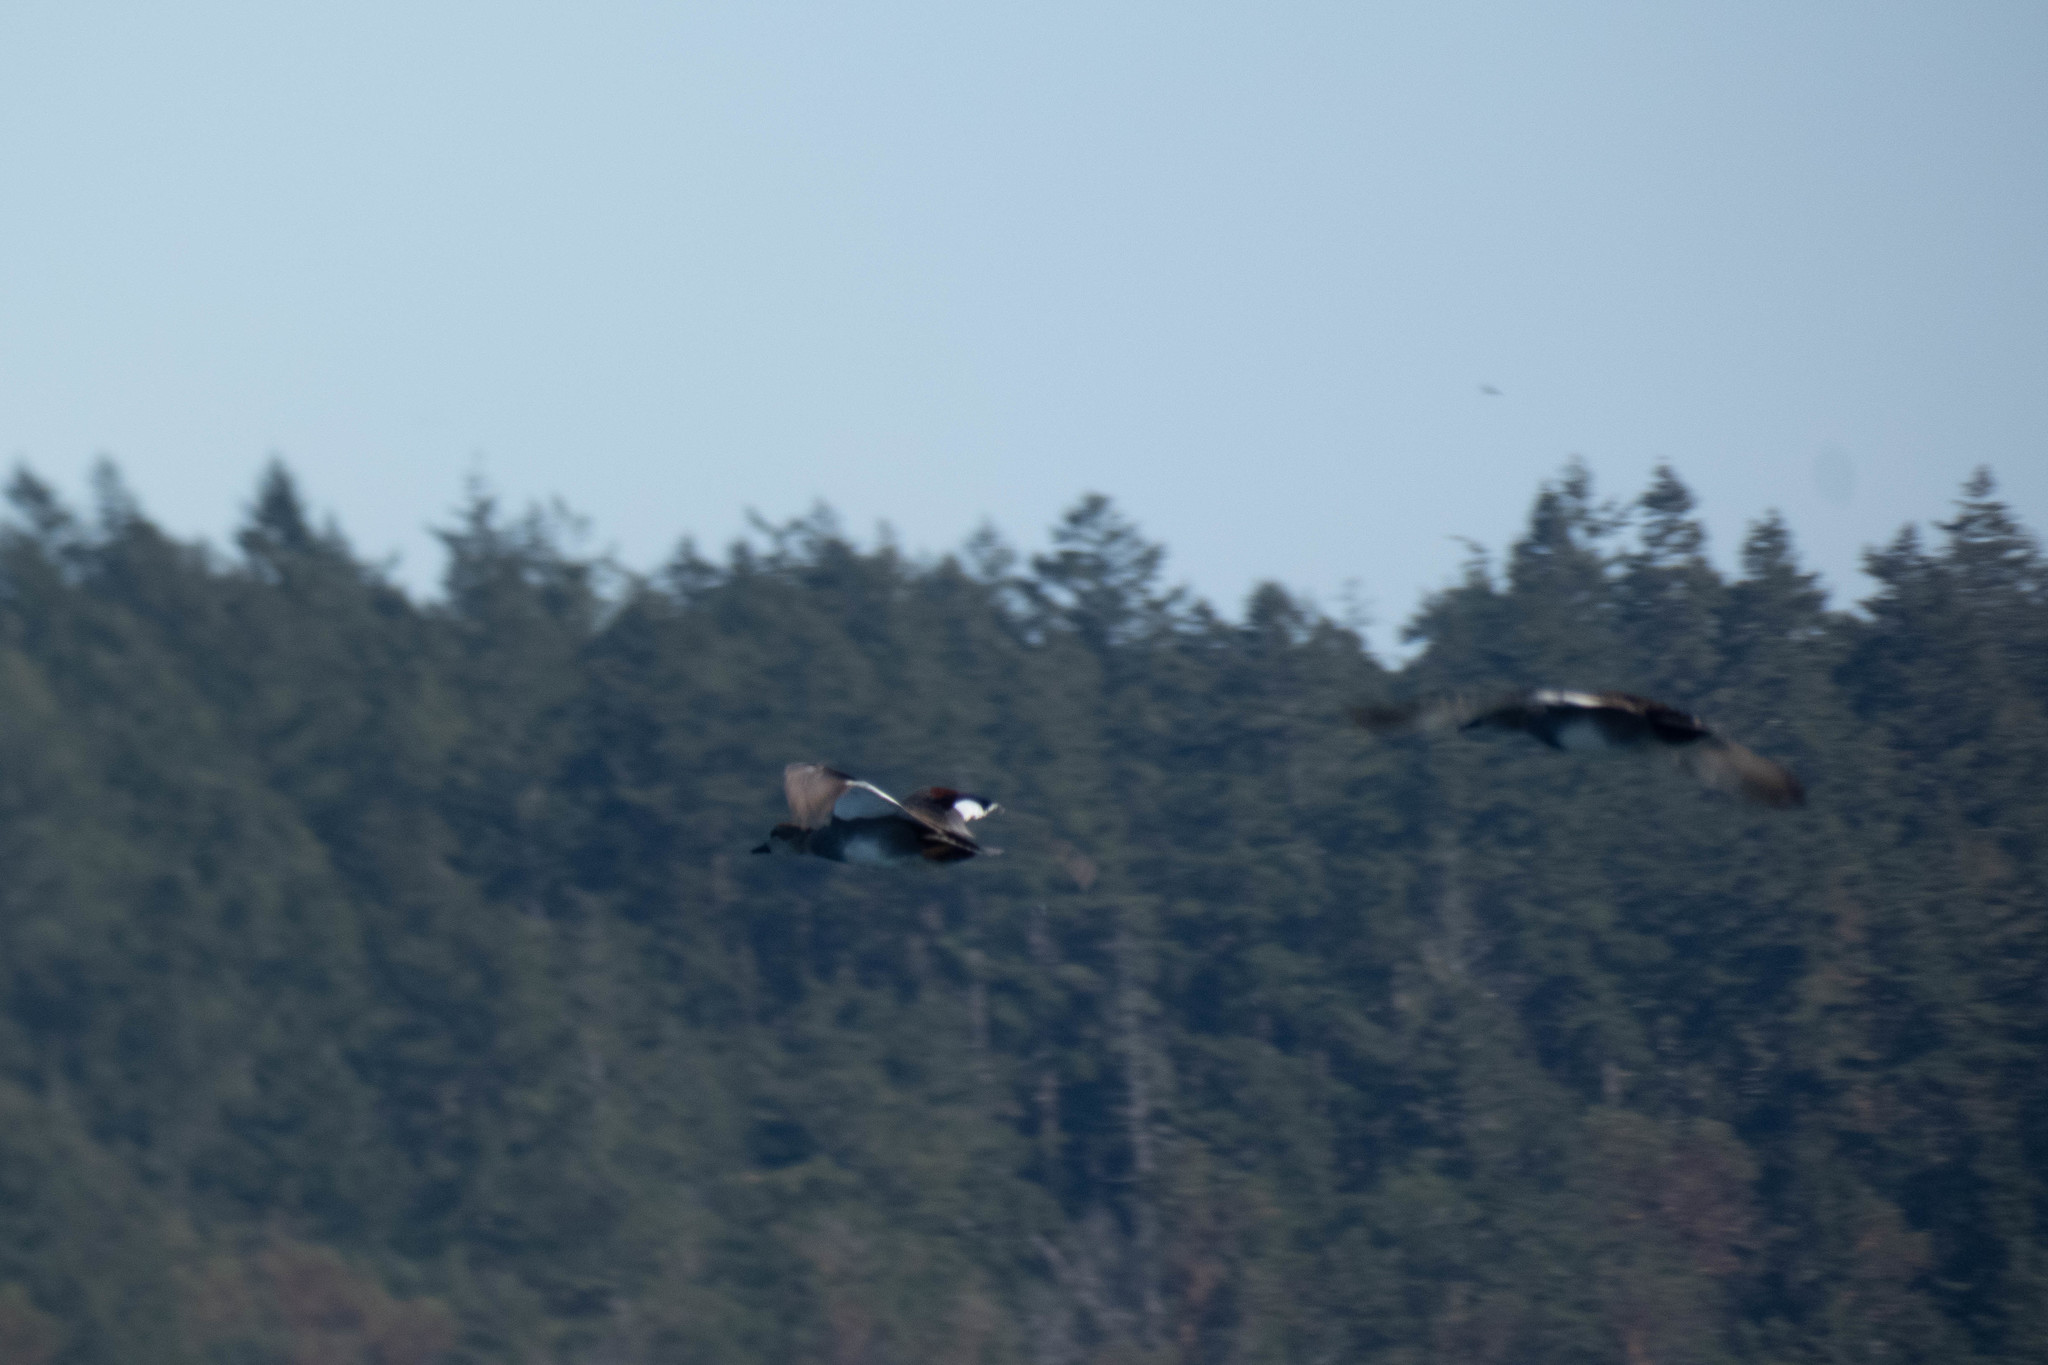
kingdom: Animalia
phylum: Chordata
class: Aves
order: Anseriformes
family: Anatidae
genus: Mareca
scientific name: Mareca strepera
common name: Gadwall
